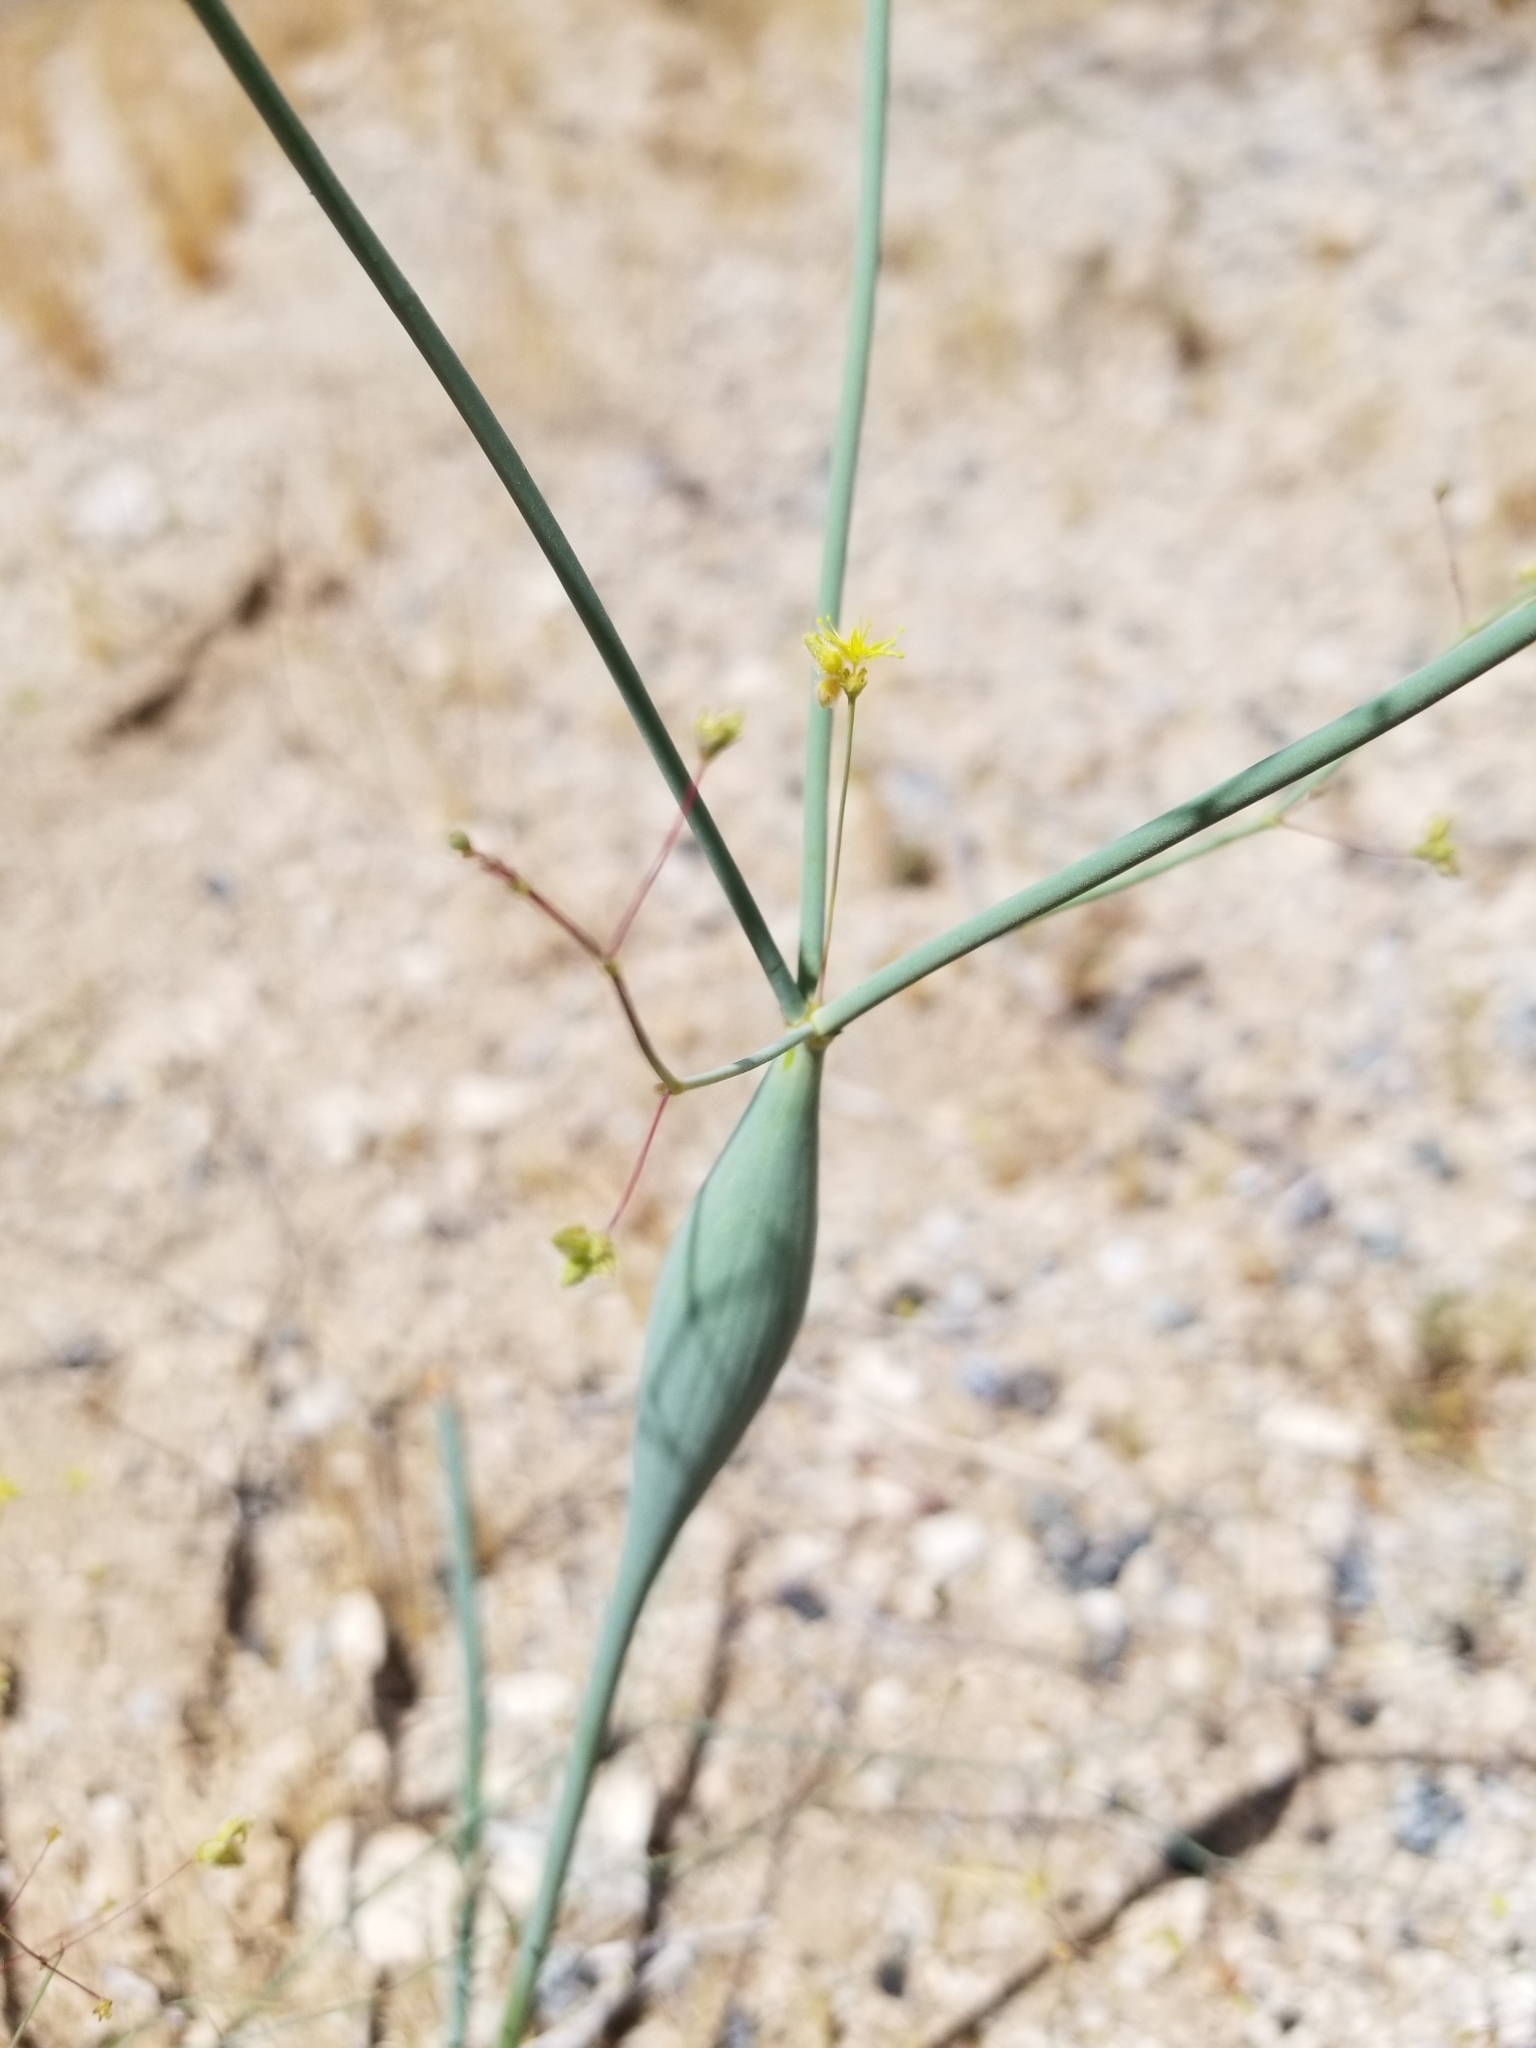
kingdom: Plantae
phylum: Tracheophyta
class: Magnoliopsida
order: Caryophyllales
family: Polygonaceae
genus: Eriogonum
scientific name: Eriogonum inflatum
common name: Desert trumpet
